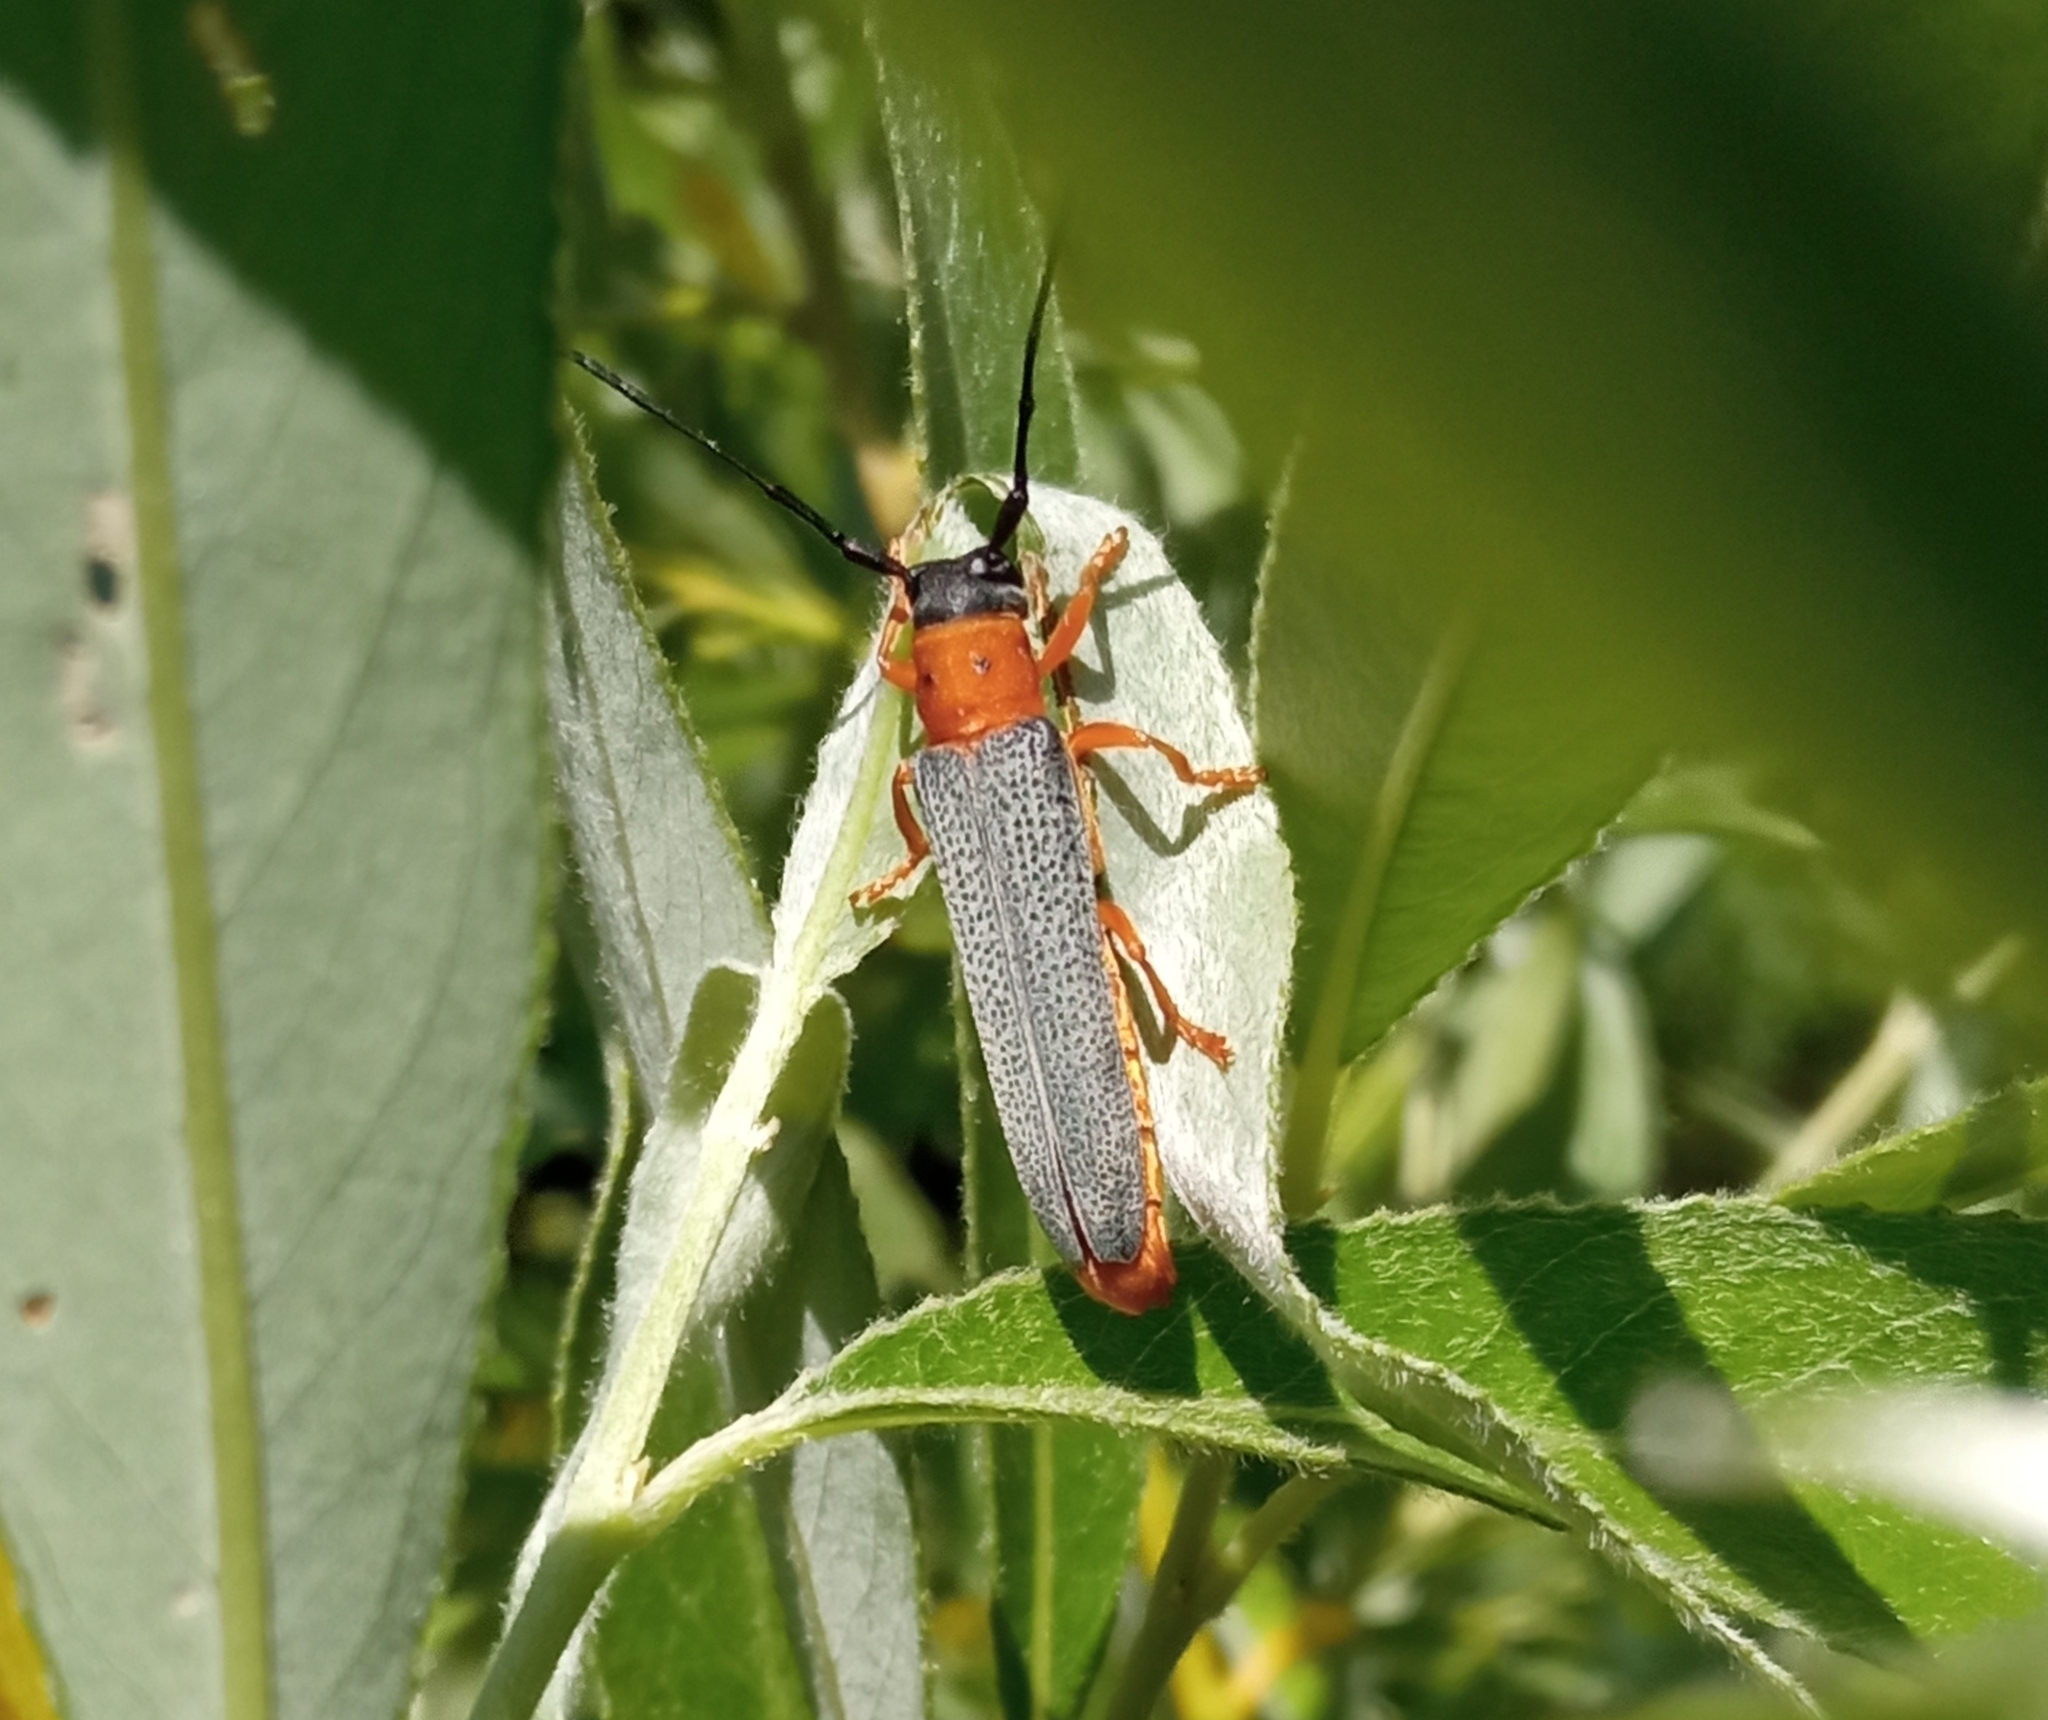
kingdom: Animalia
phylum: Arthropoda
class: Insecta
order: Coleoptera
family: Cerambycidae
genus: Oberea
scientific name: Oberea oculata
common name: Eyed longhorn beetle
